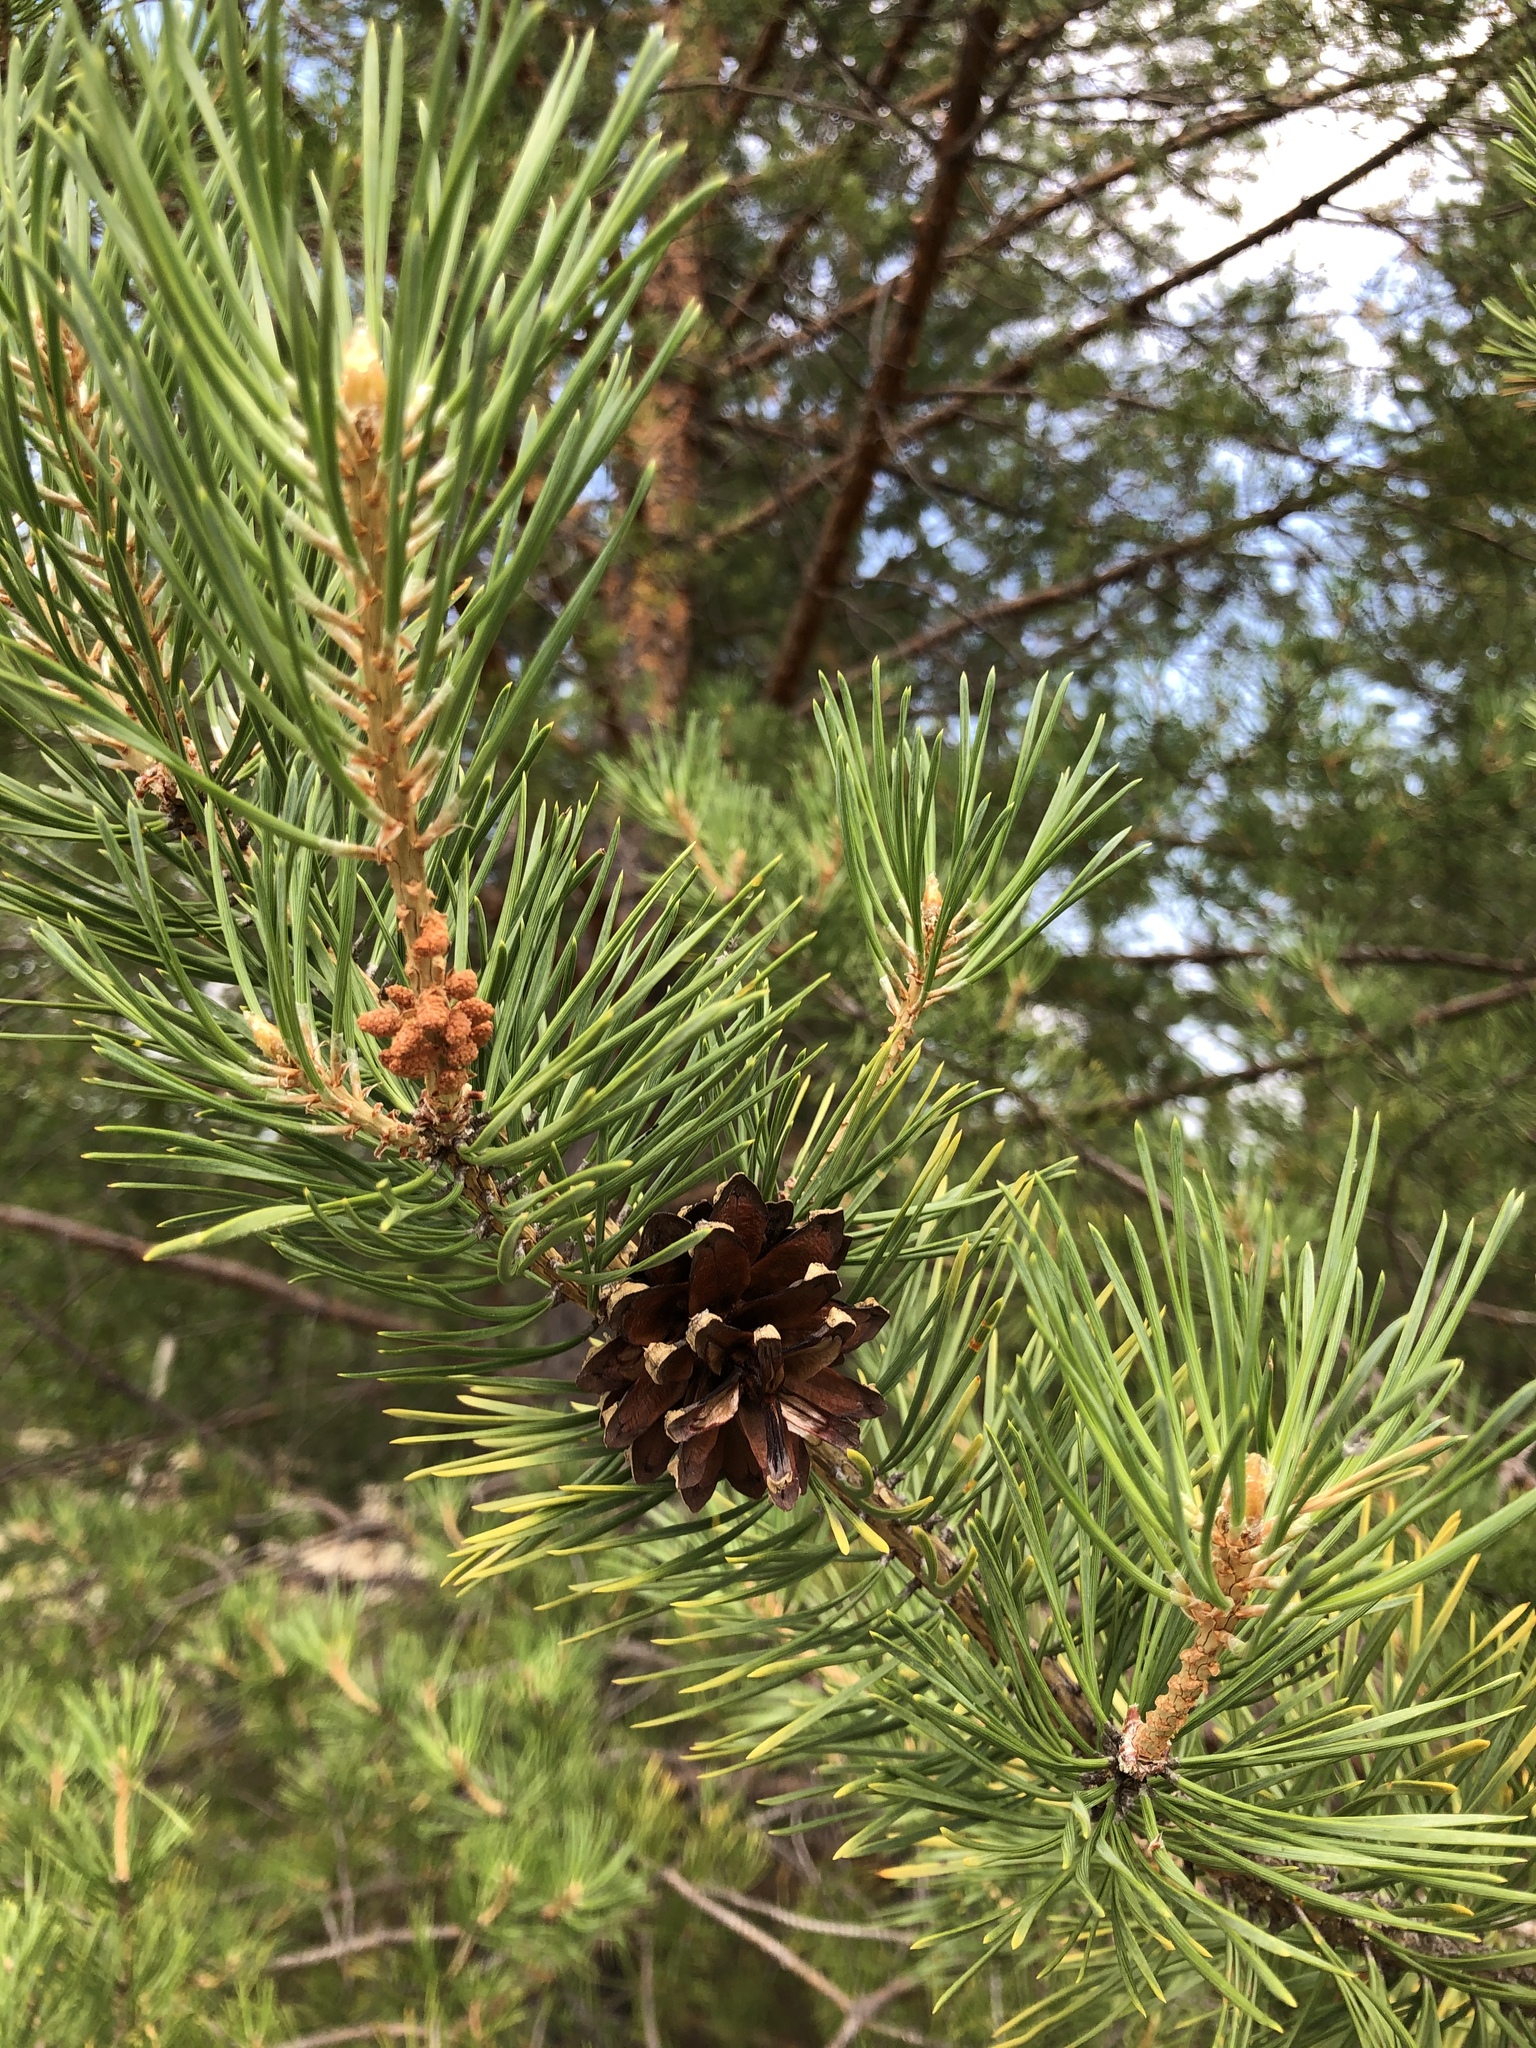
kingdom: Plantae
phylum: Tracheophyta
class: Pinopsida
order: Pinales
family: Pinaceae
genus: Pinus
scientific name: Pinus sylvestris
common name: Scots pine
